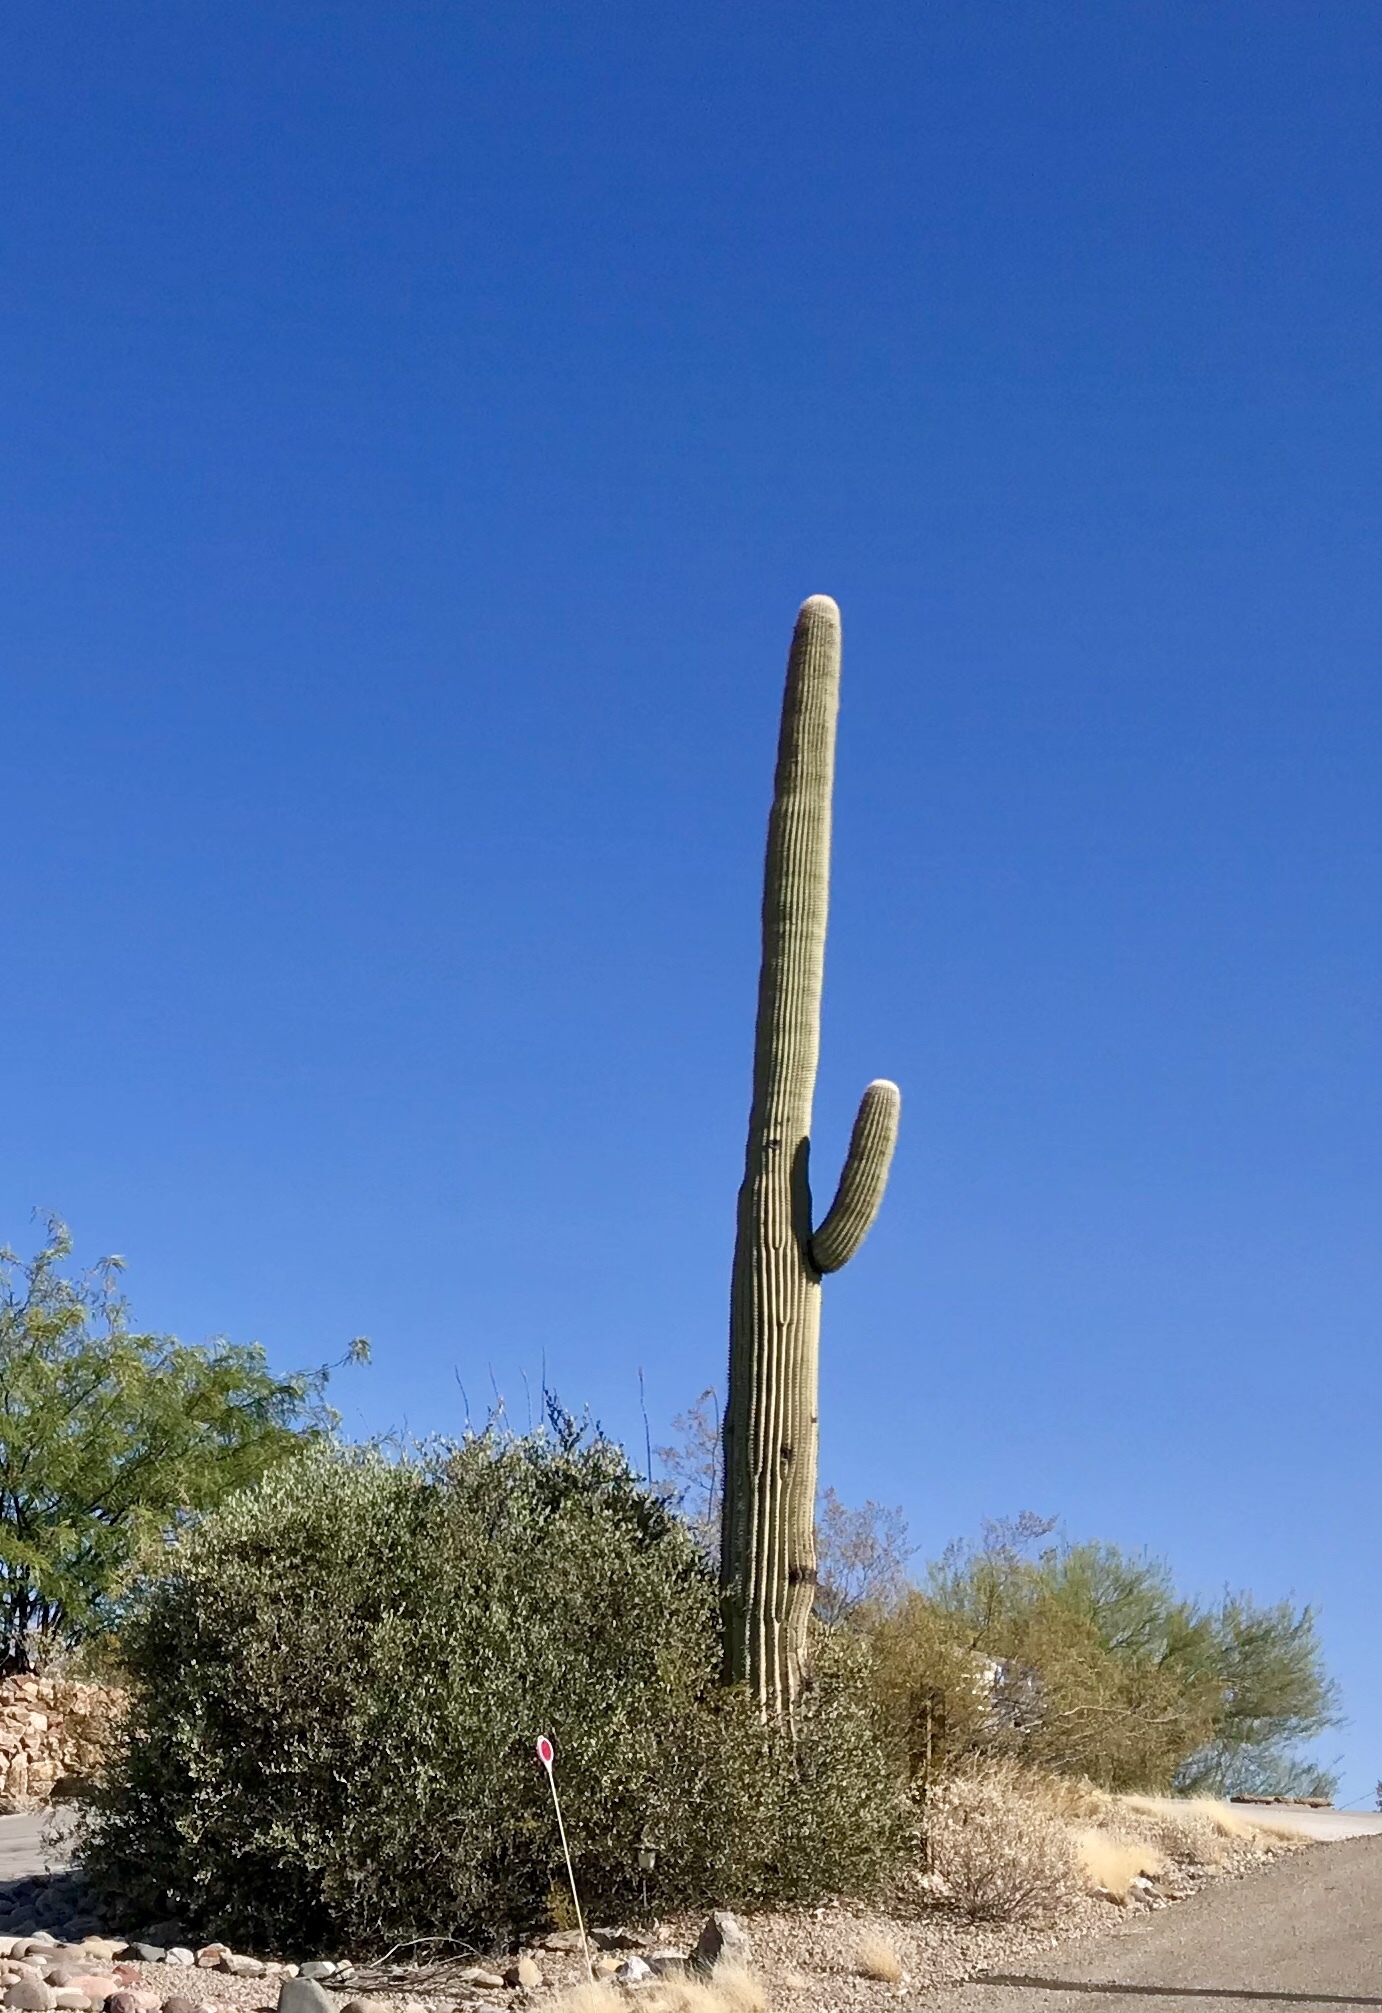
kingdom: Plantae
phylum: Tracheophyta
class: Magnoliopsida
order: Caryophyllales
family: Cactaceae
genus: Carnegiea
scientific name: Carnegiea gigantea
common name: Saguaro
